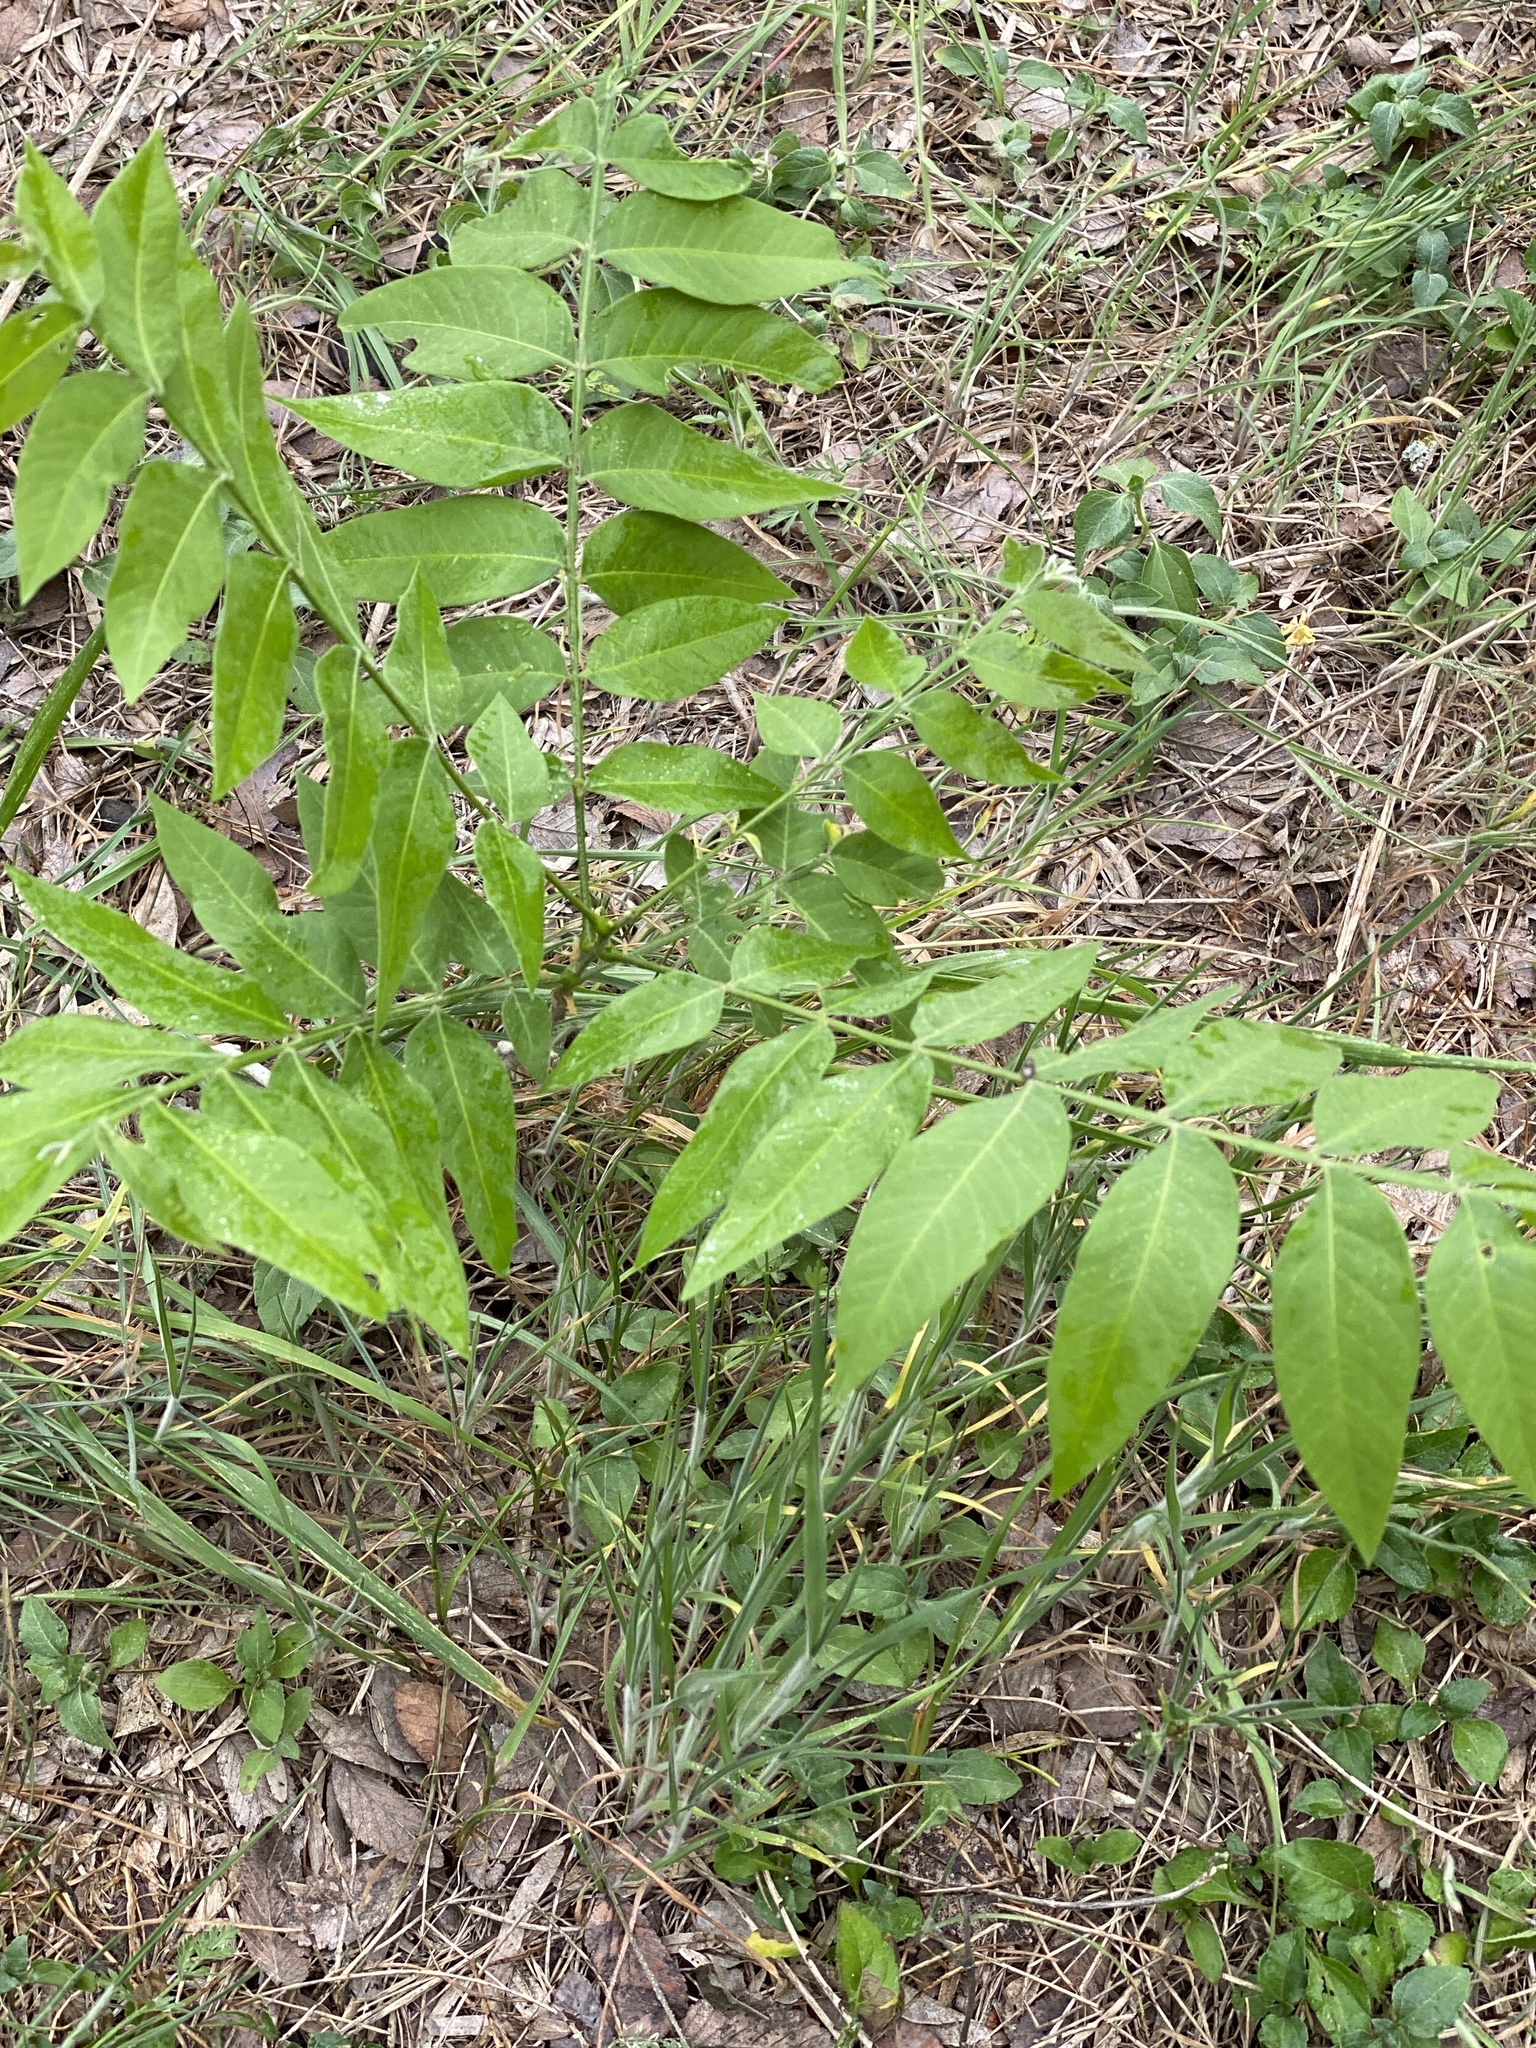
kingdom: Plantae
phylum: Tracheophyta
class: Magnoliopsida
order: Sapindales
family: Sapindaceae
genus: Sapindus
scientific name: Sapindus drummondii
